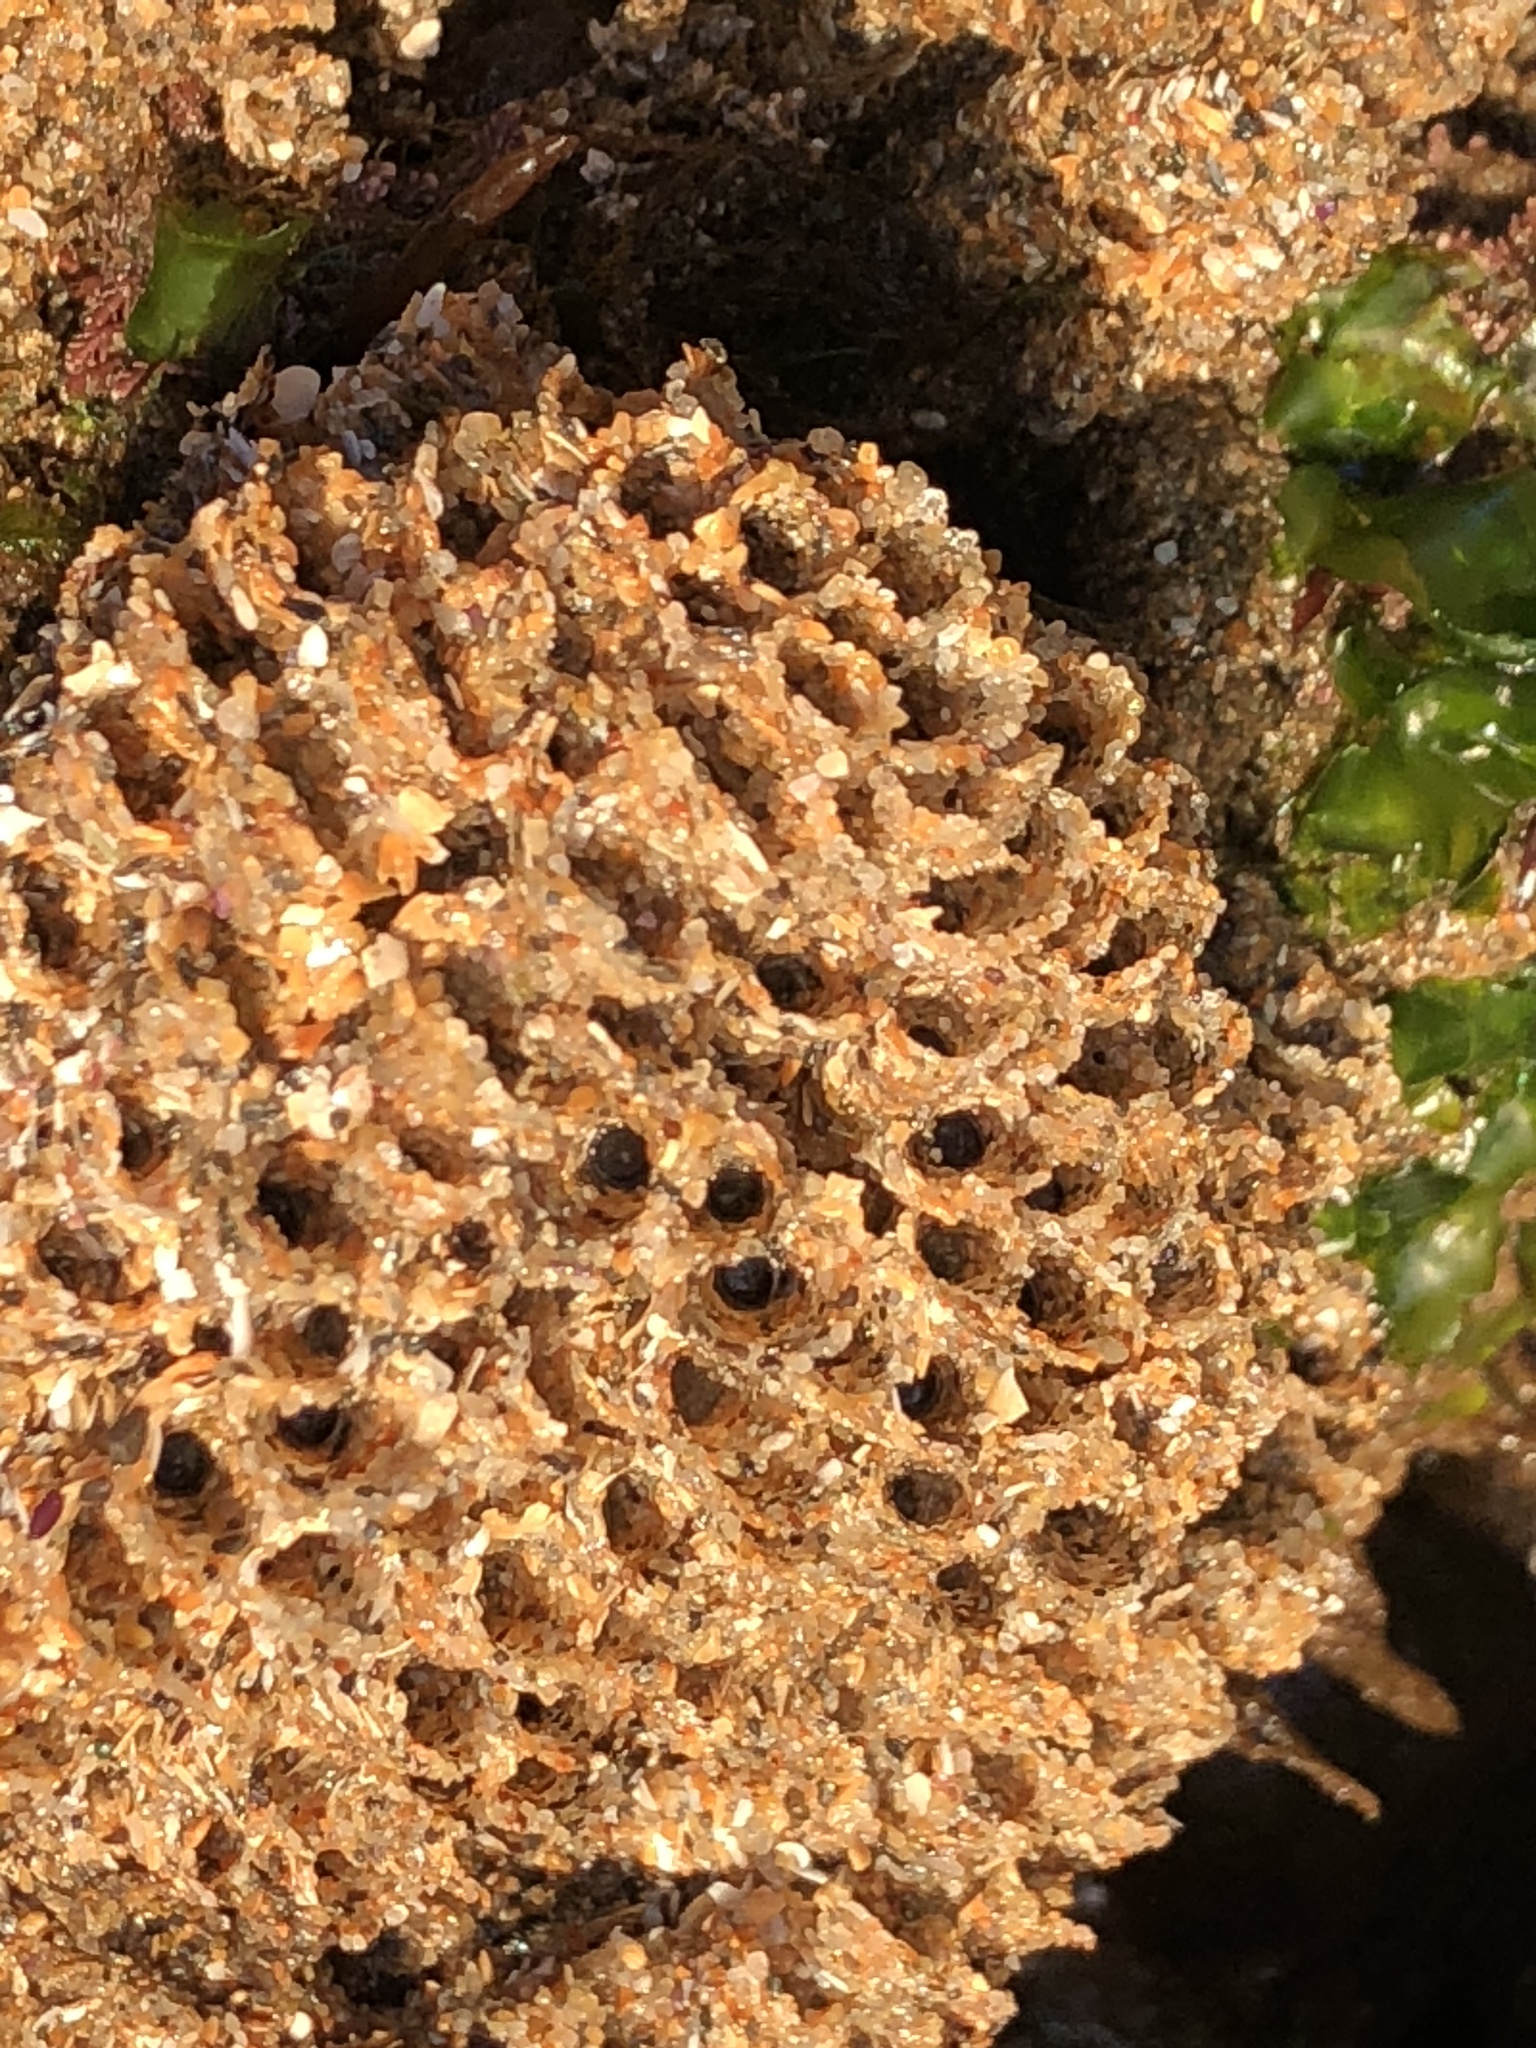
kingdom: Animalia
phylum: Annelida
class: Polychaeta
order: Sabellida
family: Sabellariidae
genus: Phragmatopoma
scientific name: Phragmatopoma californica
